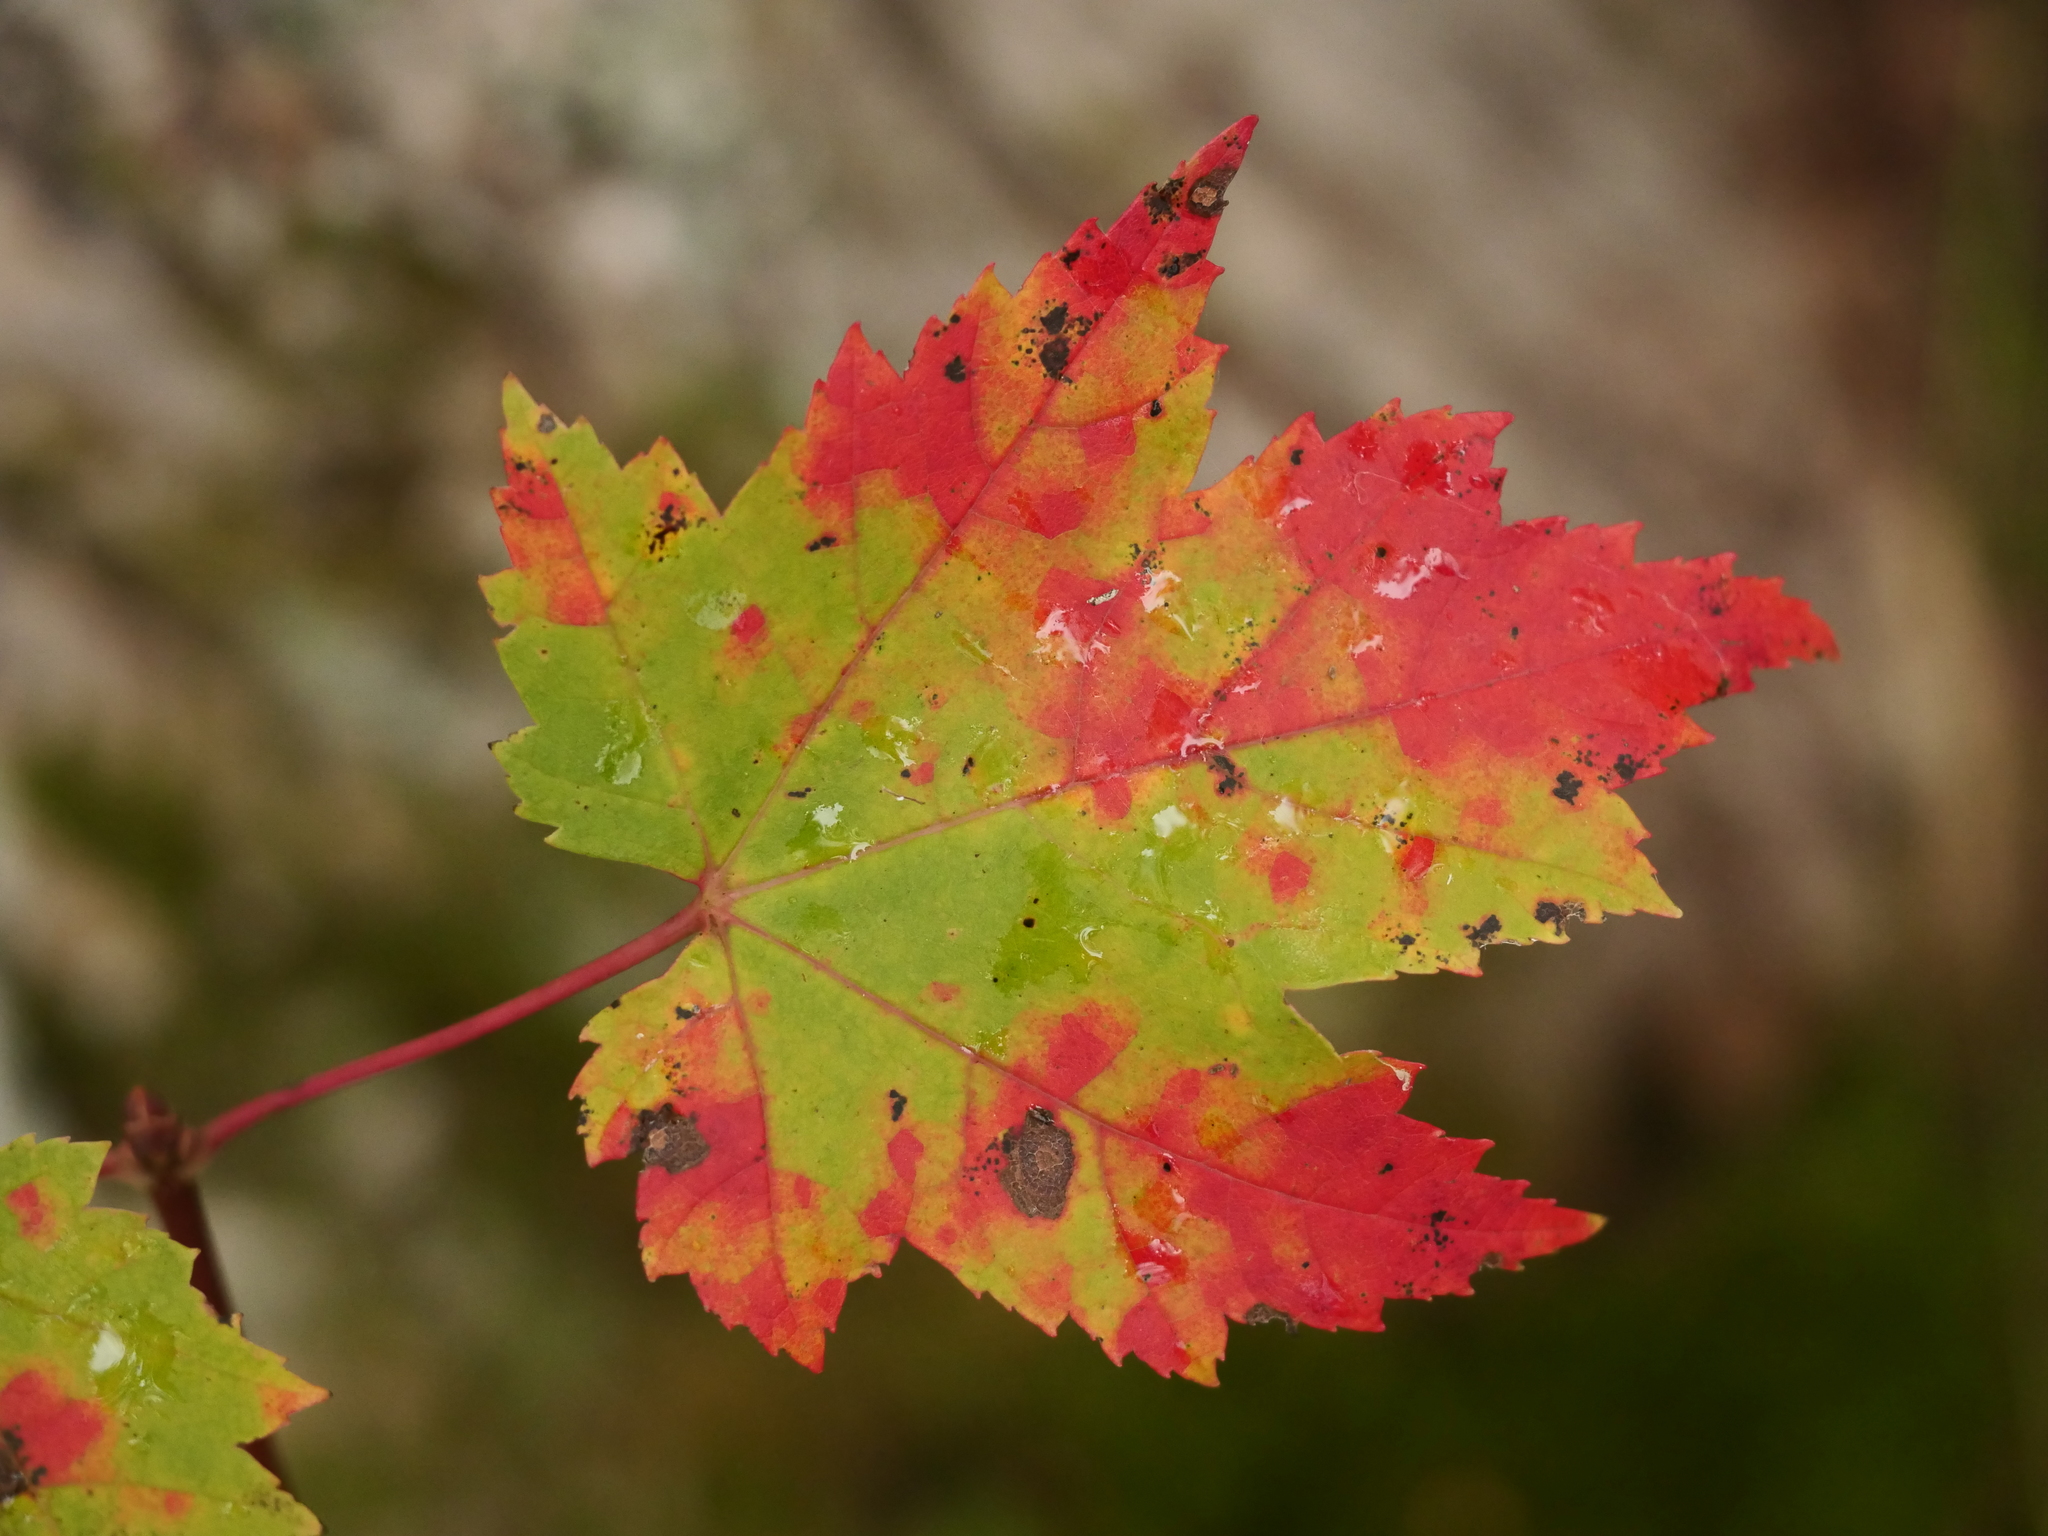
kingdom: Plantae
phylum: Tracheophyta
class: Magnoliopsida
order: Sapindales
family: Sapindaceae
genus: Acer
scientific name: Acer rubrum
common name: Red maple
